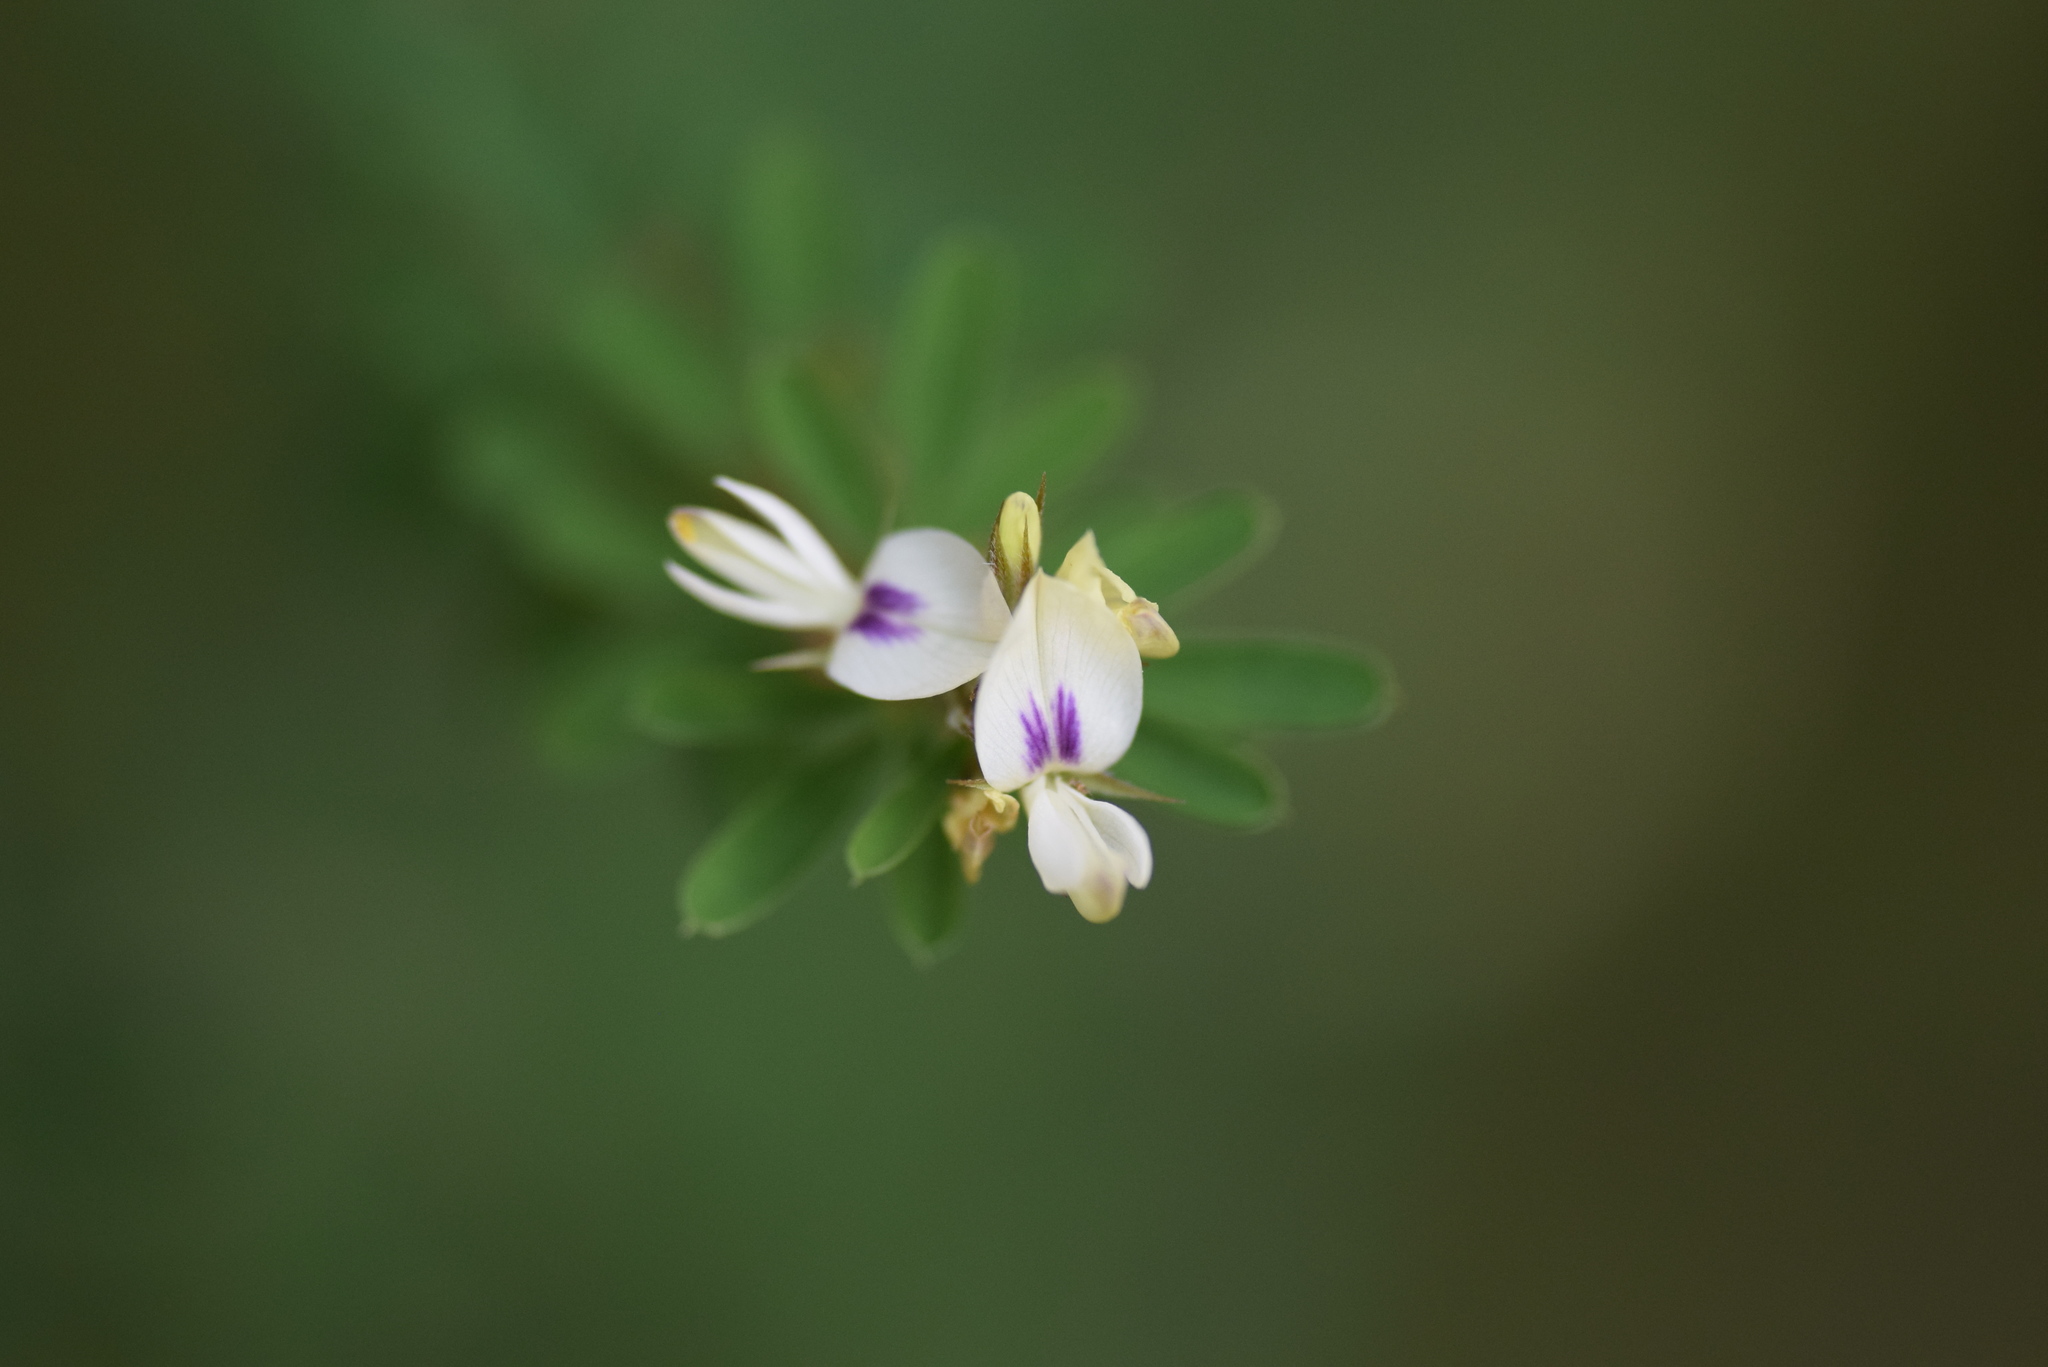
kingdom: Plantae
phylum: Tracheophyta
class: Magnoliopsida
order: Fabales
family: Fabaceae
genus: Lespedeza
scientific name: Lespedeza cuneata
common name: Chinese bush-clover
